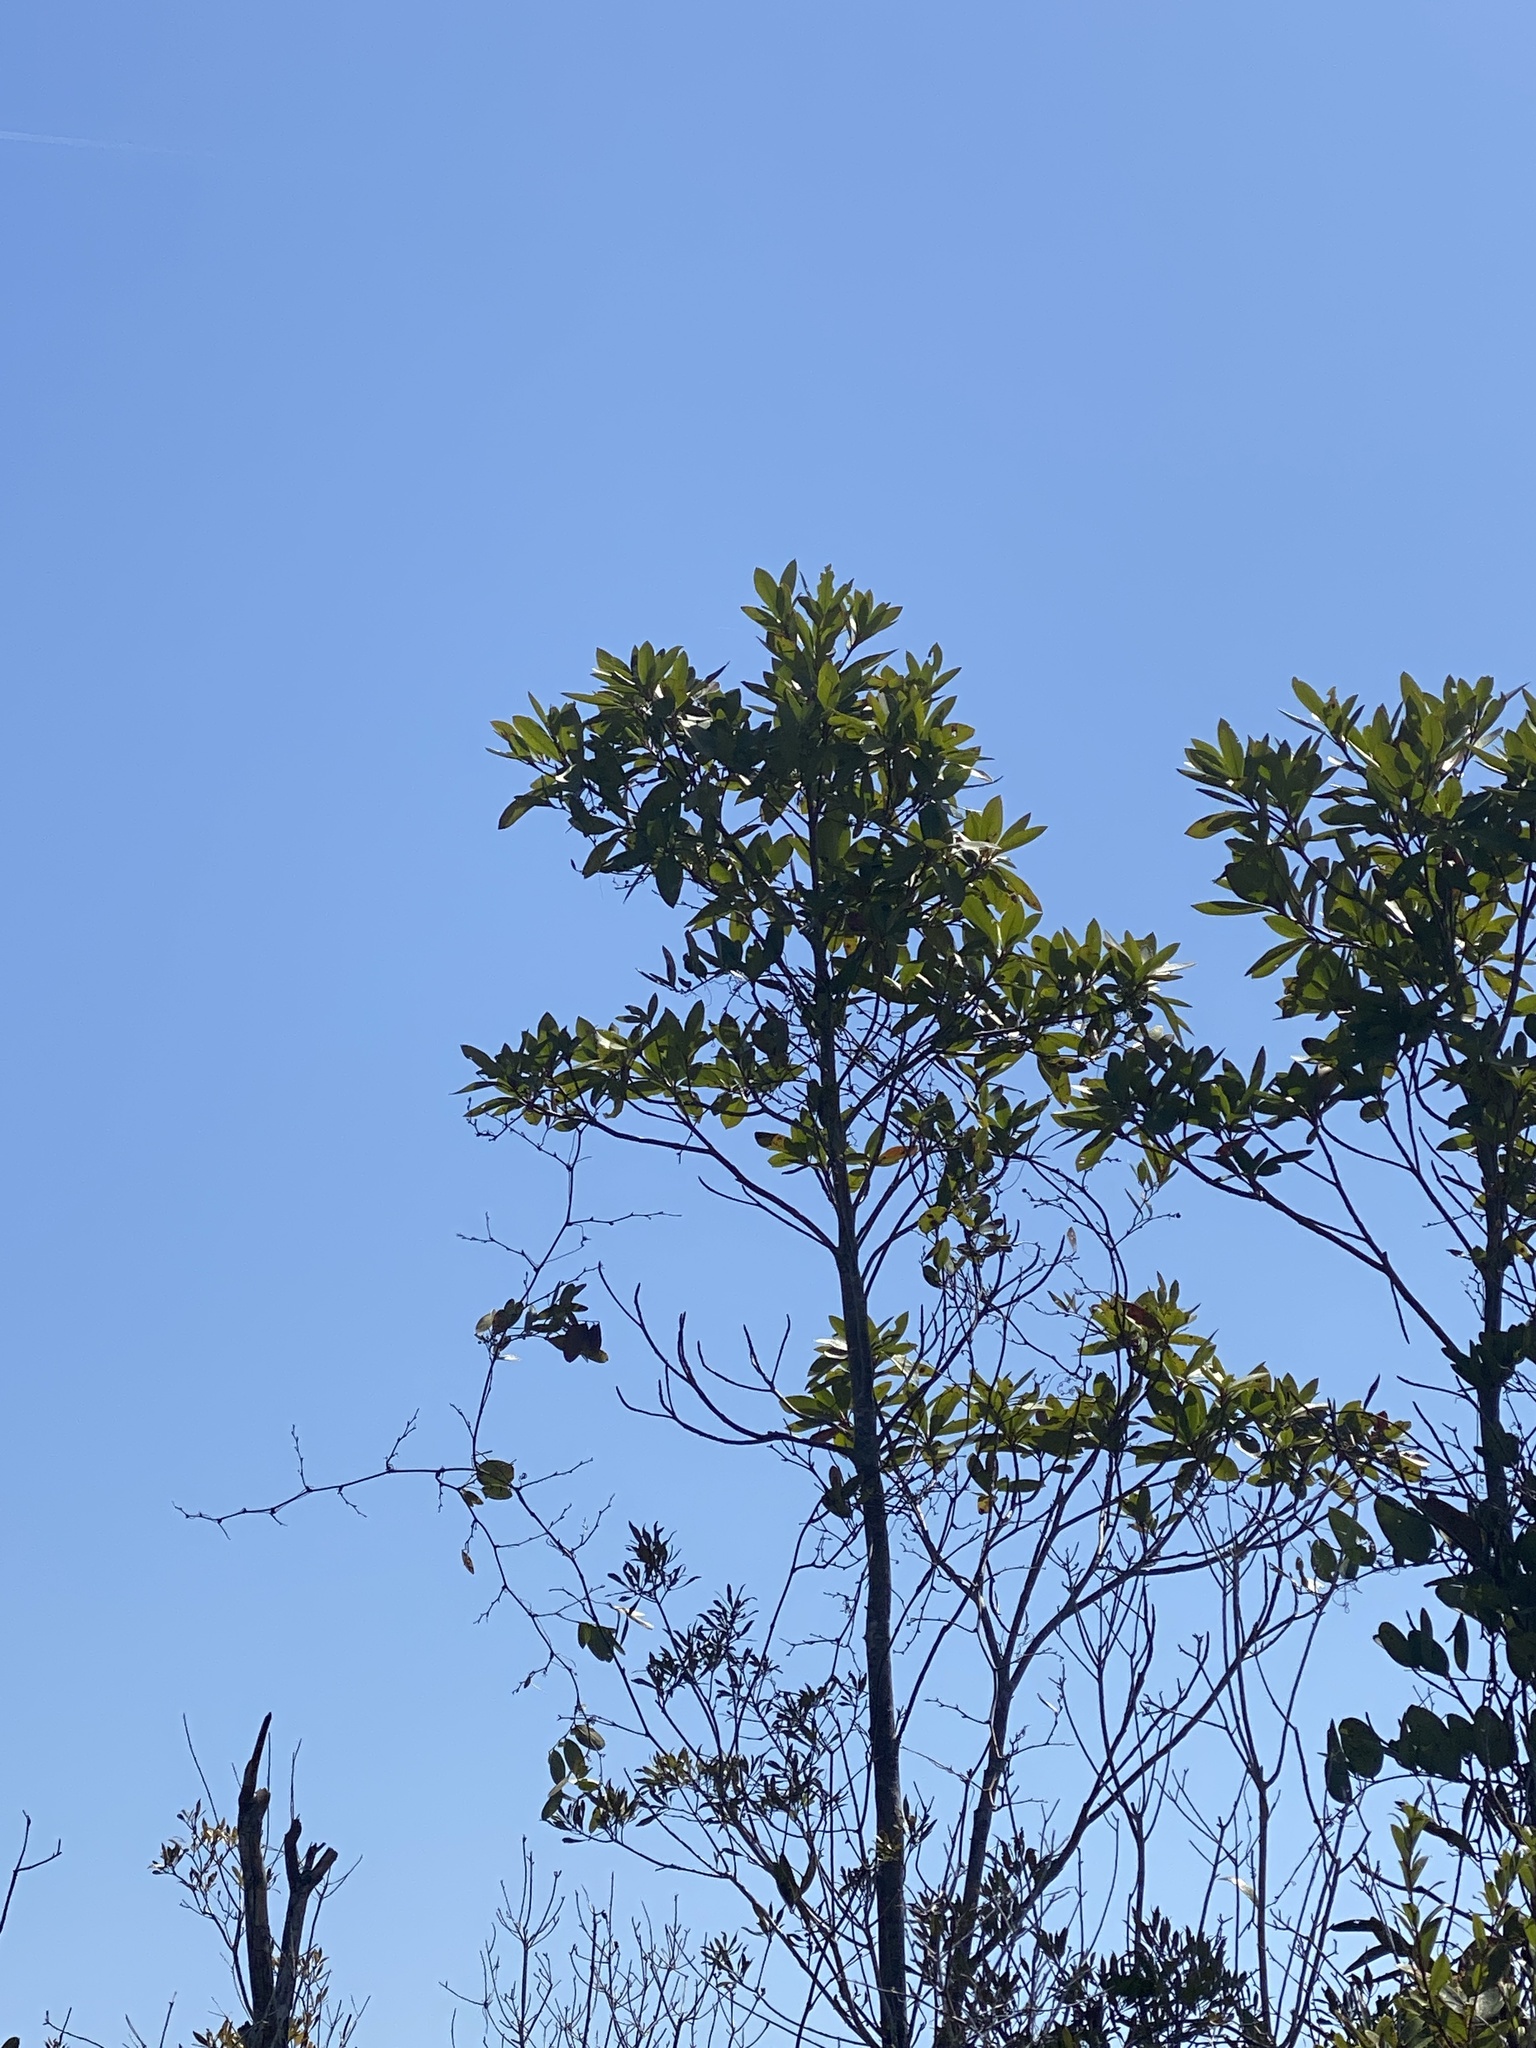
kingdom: Plantae
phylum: Tracheophyta
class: Magnoliopsida
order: Ericales
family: Theaceae
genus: Gordonia
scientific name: Gordonia lasianthus
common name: Loblolly bay
